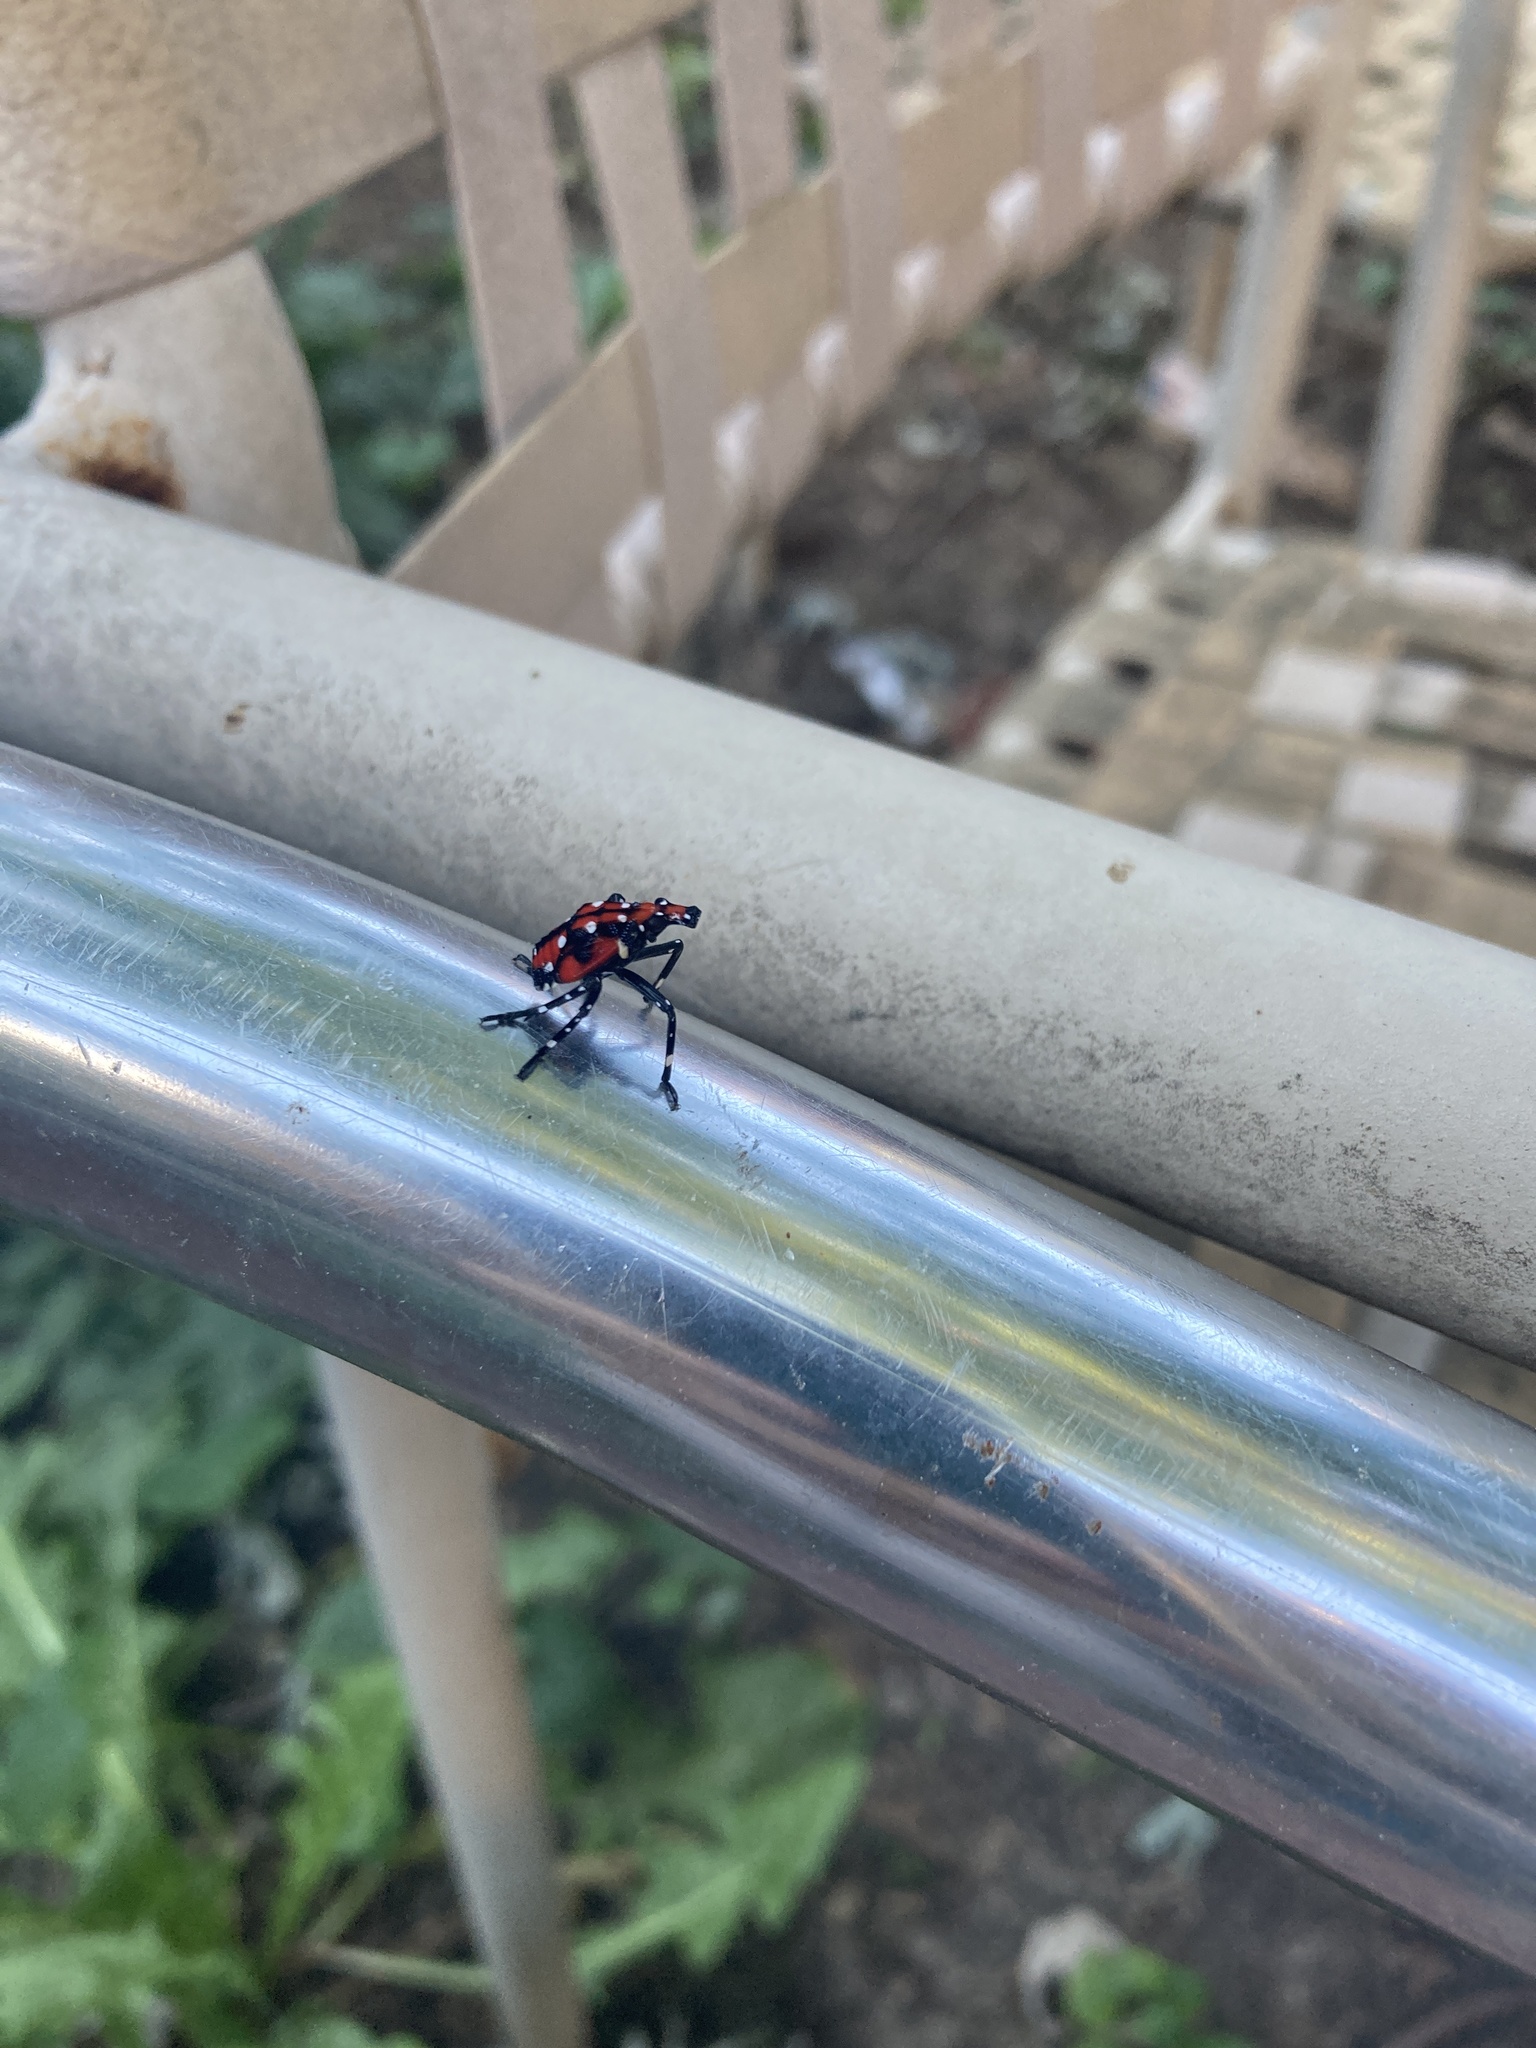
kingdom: Animalia
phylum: Arthropoda
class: Insecta
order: Hemiptera
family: Fulgoridae
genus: Lycorma
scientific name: Lycorma delicatula
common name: Spotted lanternfly
